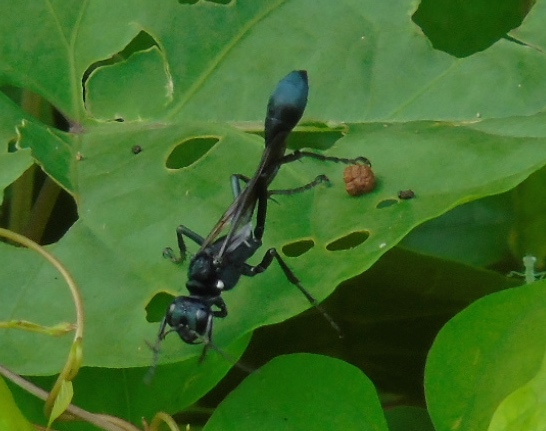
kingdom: Animalia
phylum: Arthropoda
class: Insecta
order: Hymenoptera
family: Sphecidae
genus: Eremnophila
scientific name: Eremnophila aureonotata
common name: Gold-marked thread-waisted wasp
